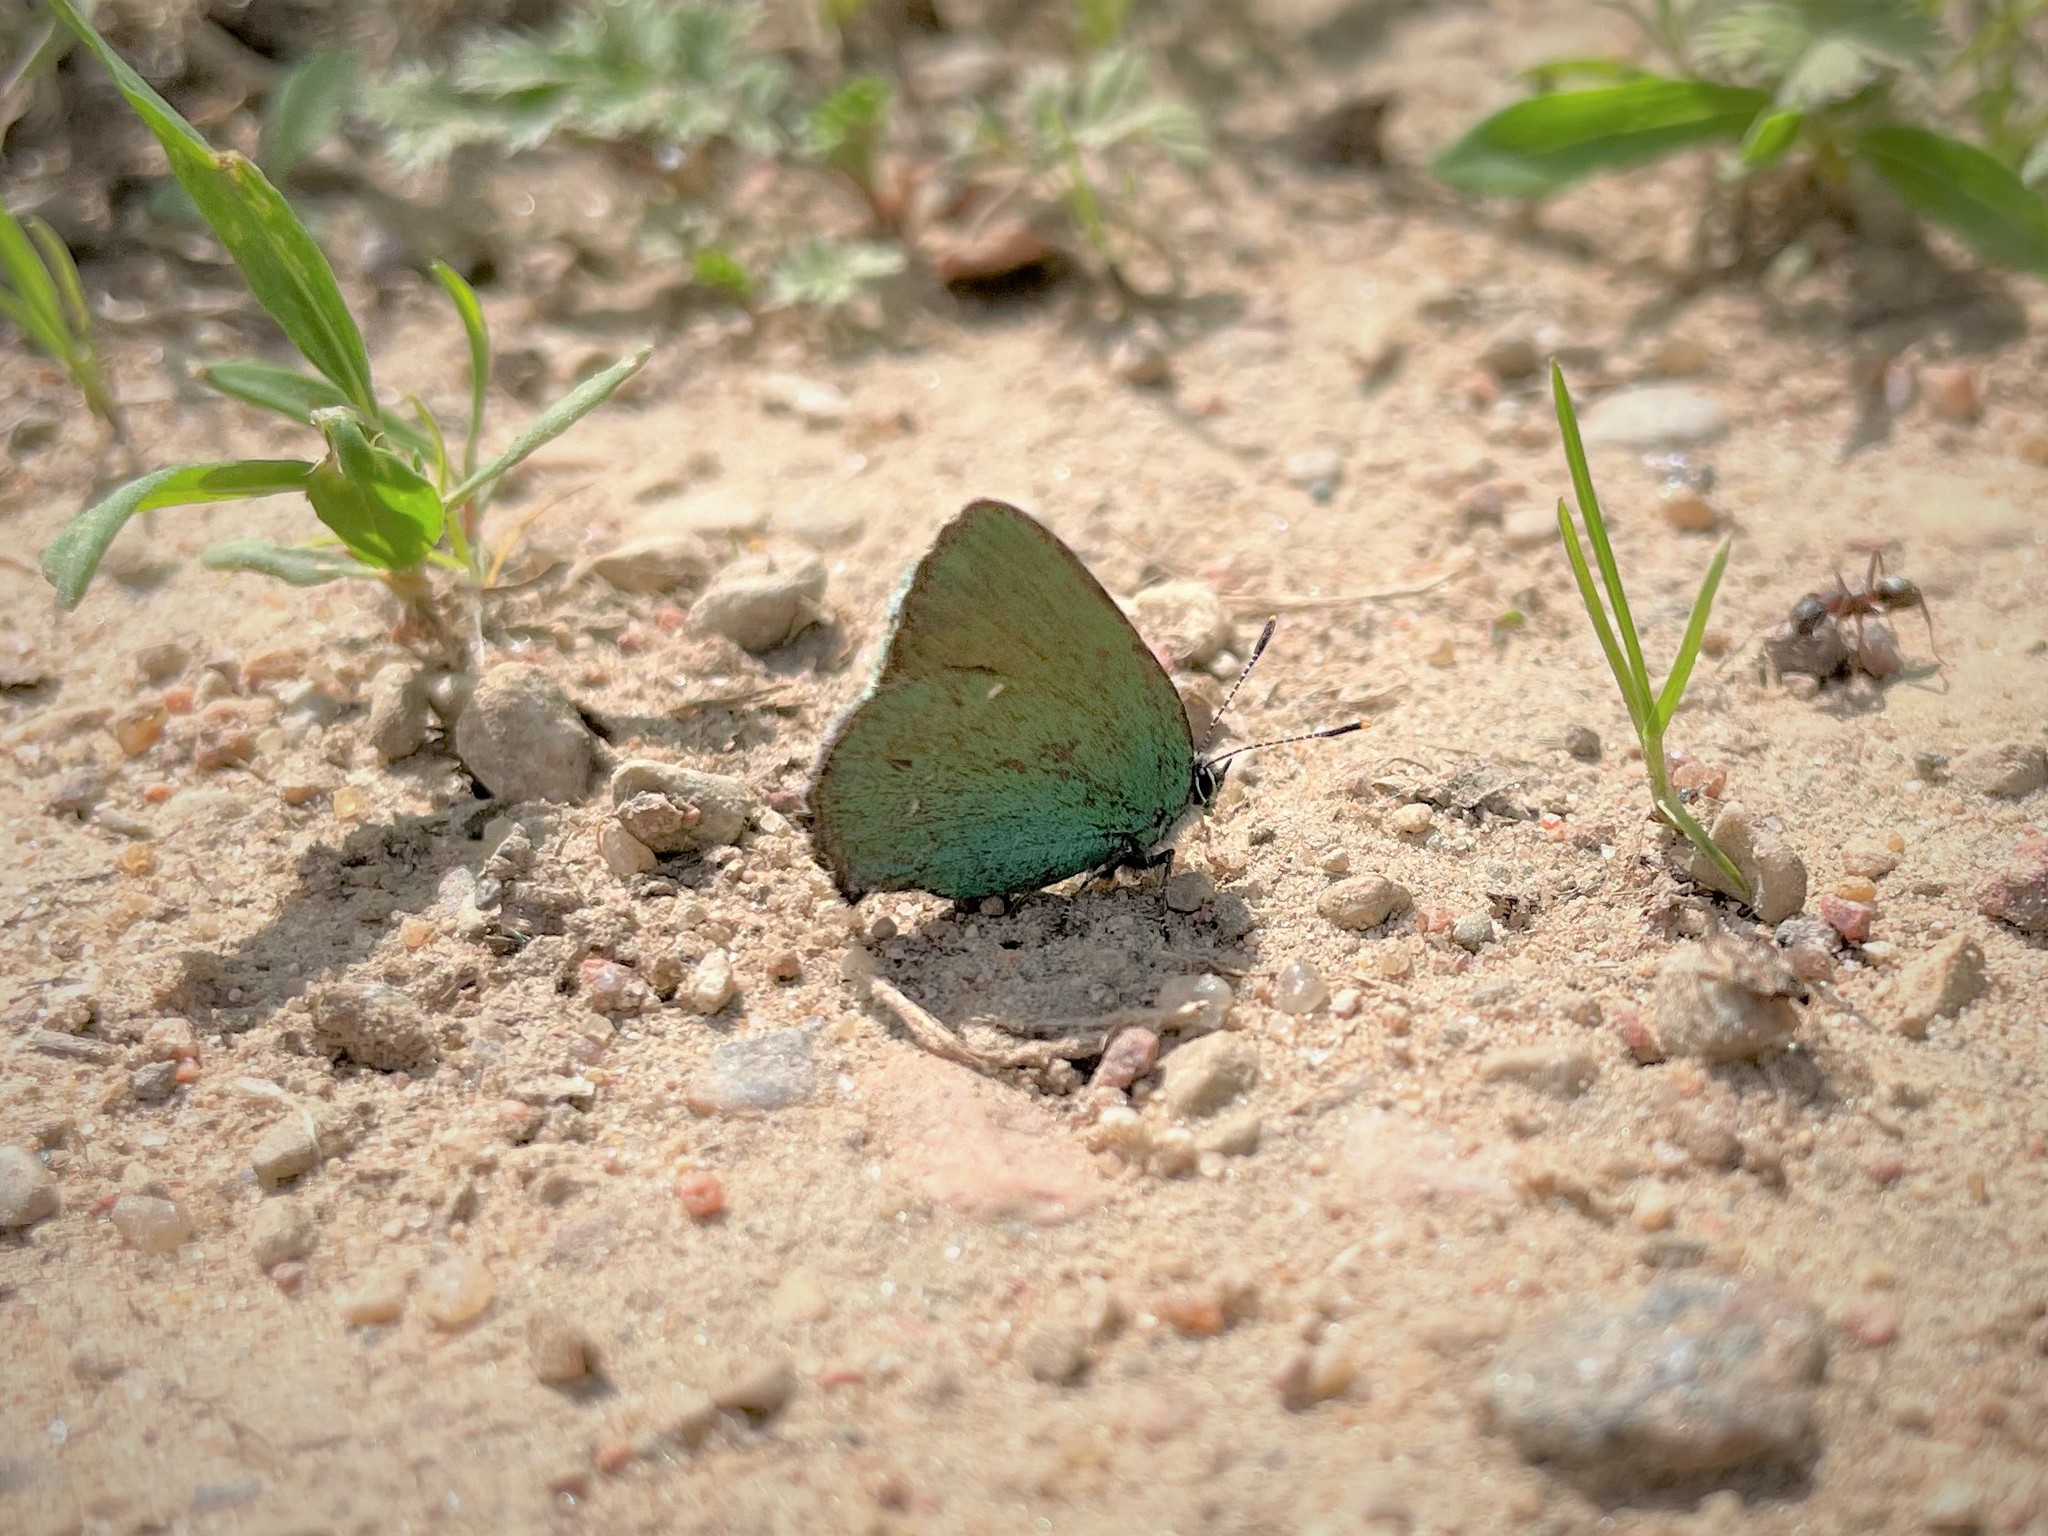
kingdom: Animalia
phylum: Arthropoda
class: Insecta
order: Lepidoptera
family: Lycaenidae
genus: Callophrys
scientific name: Callophrys rubi
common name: Green hairstreak
